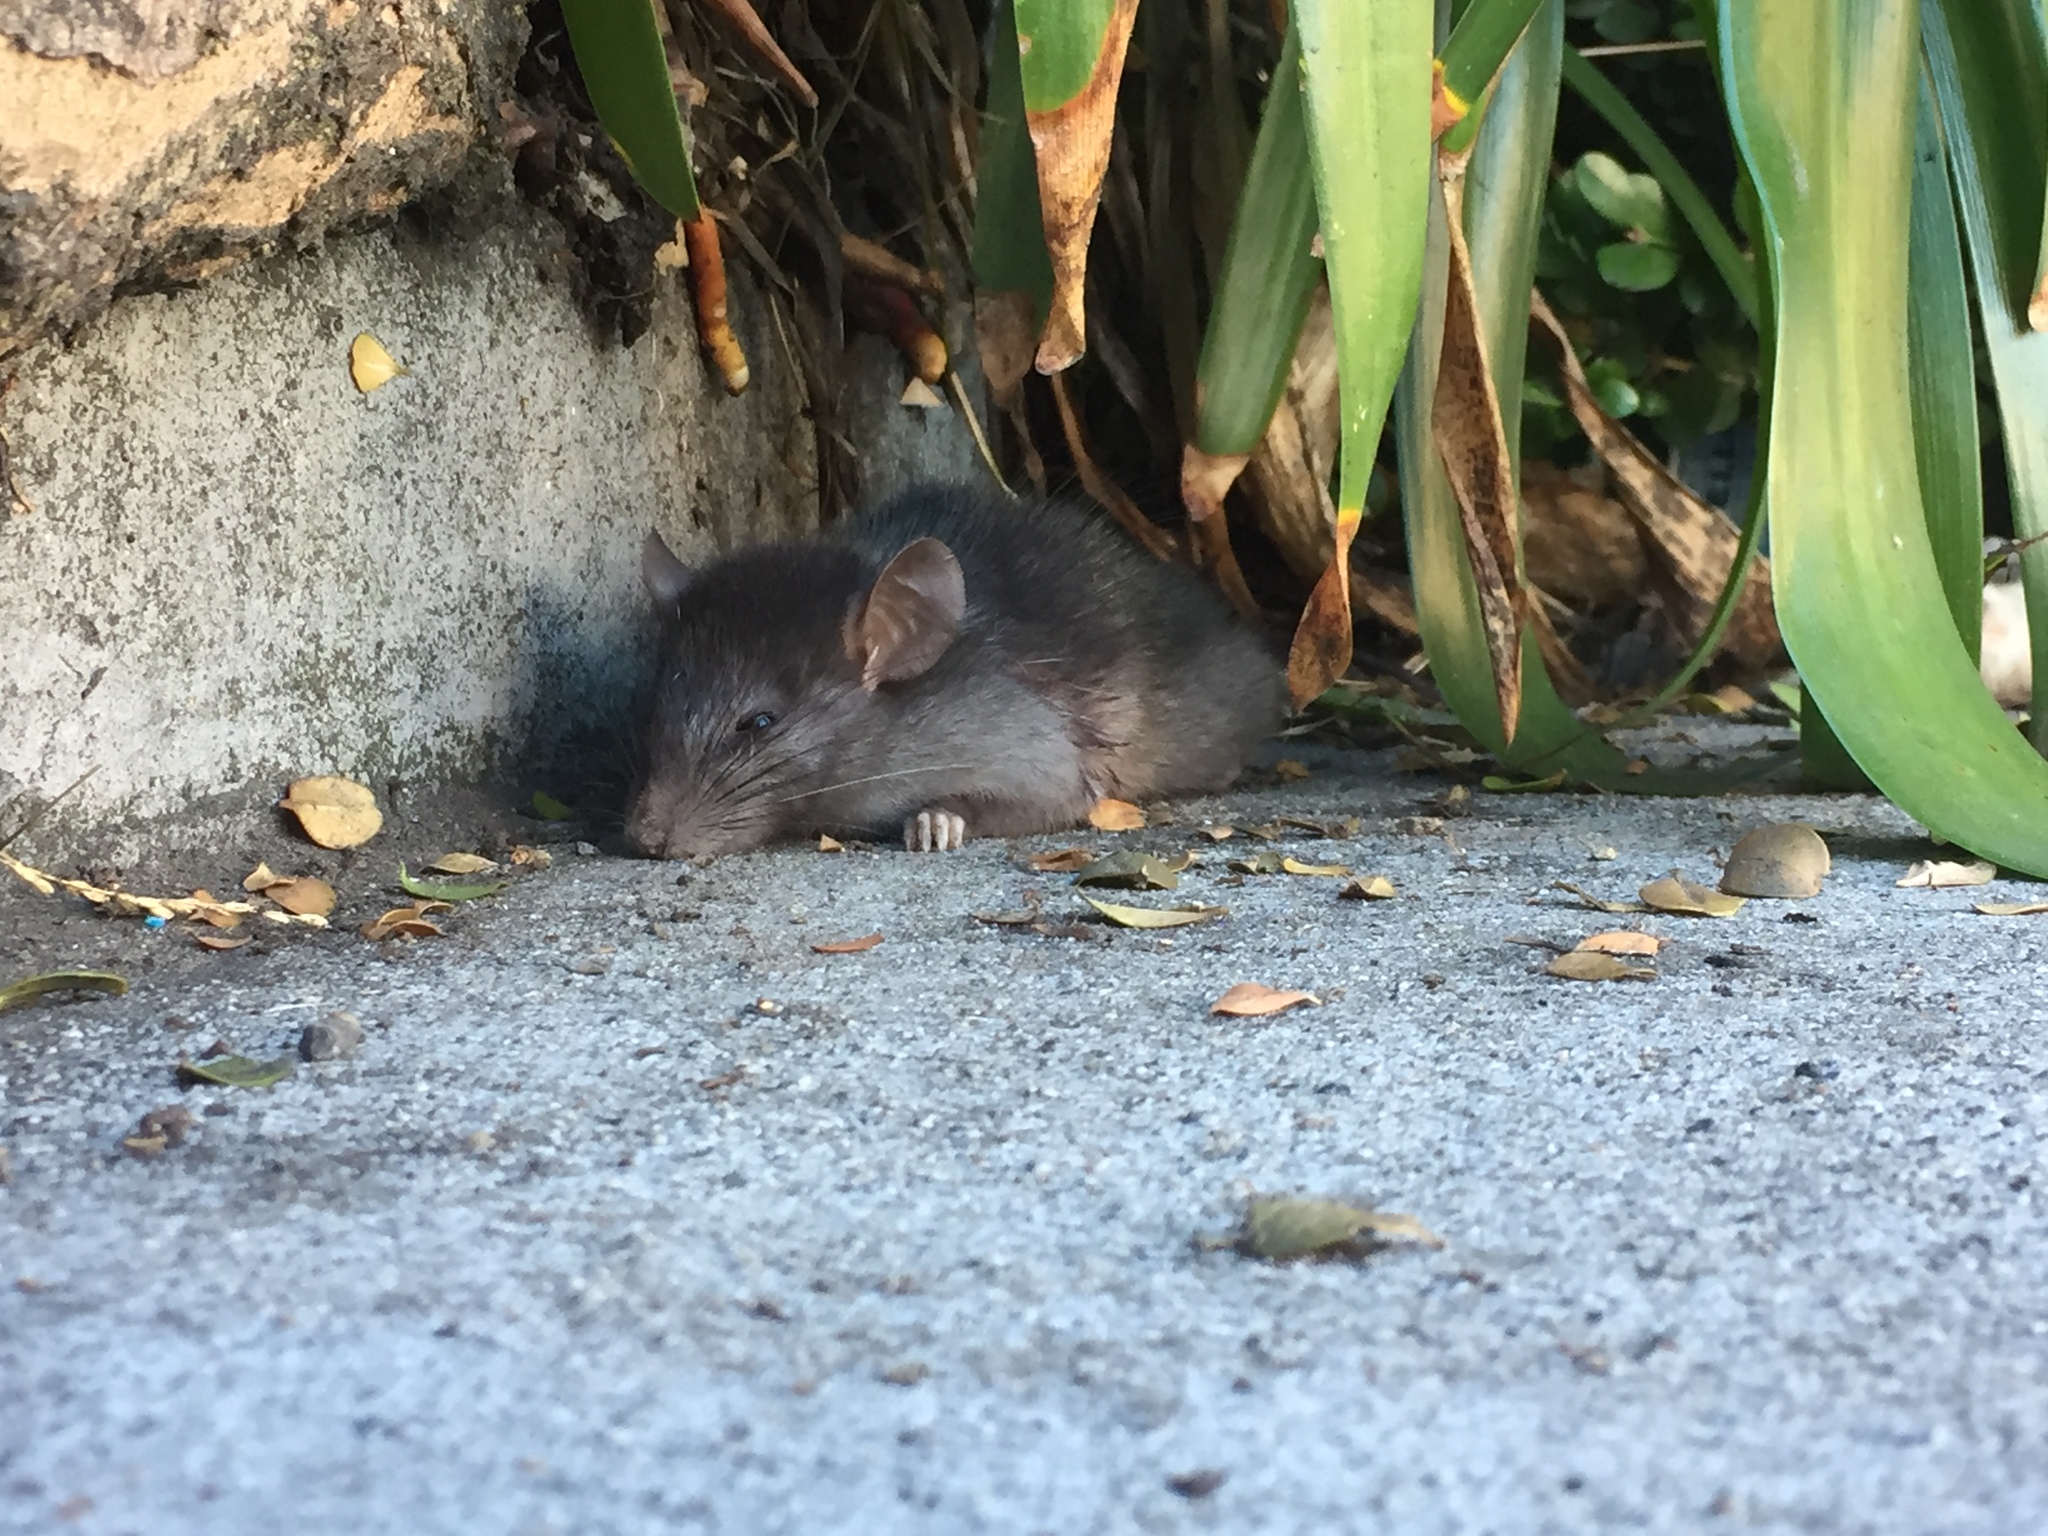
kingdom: Animalia
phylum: Chordata
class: Mammalia
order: Rodentia
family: Muridae
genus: Rattus
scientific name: Rattus rattus
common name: Black rat
